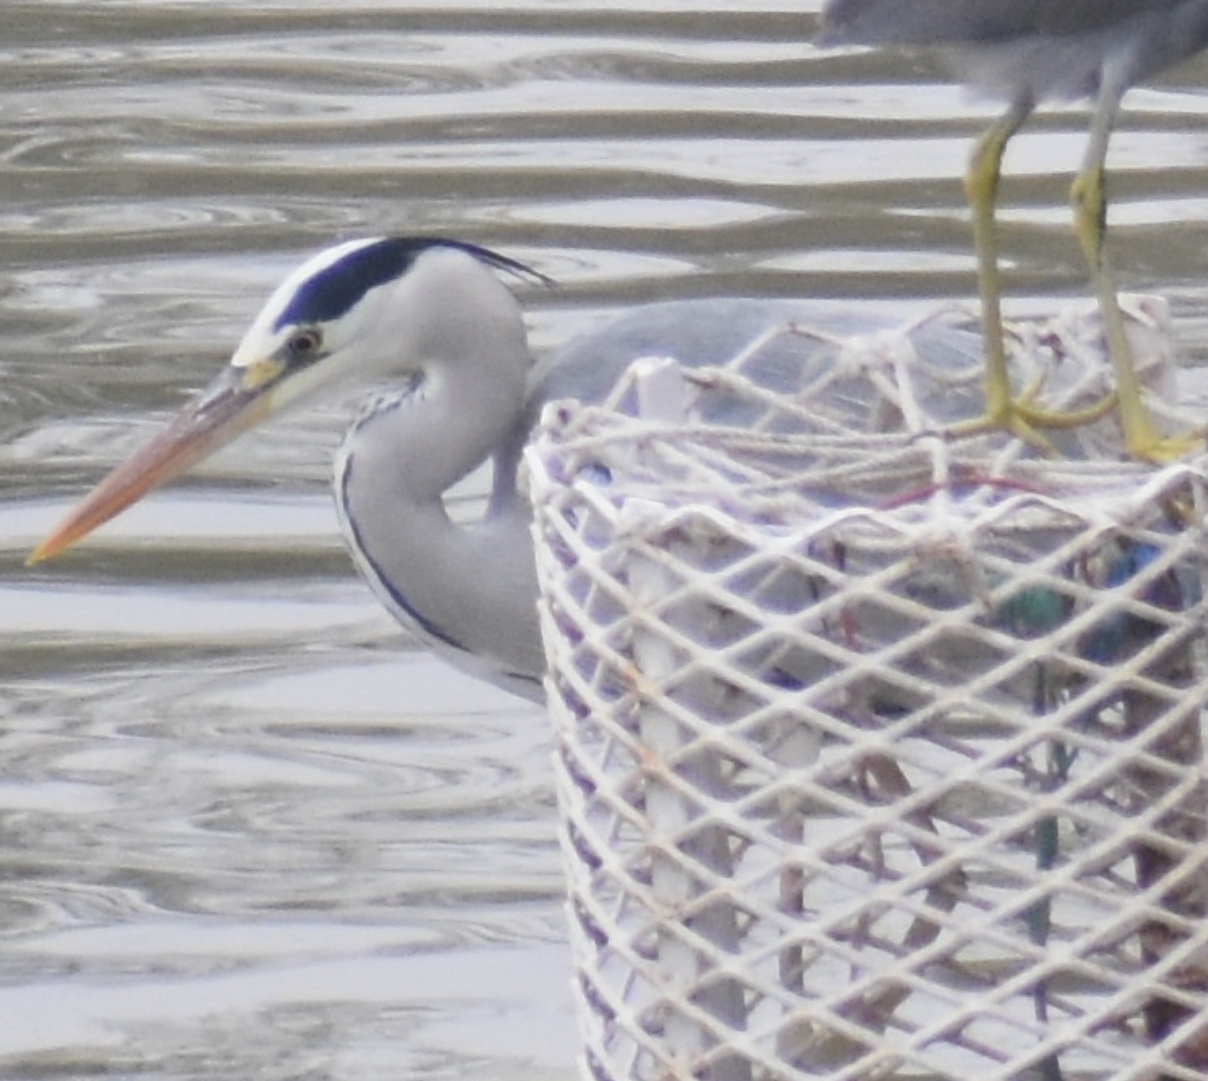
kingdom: Animalia
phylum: Chordata
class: Aves
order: Pelecaniformes
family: Ardeidae
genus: Ardea
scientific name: Ardea cinerea
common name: Grey heron
